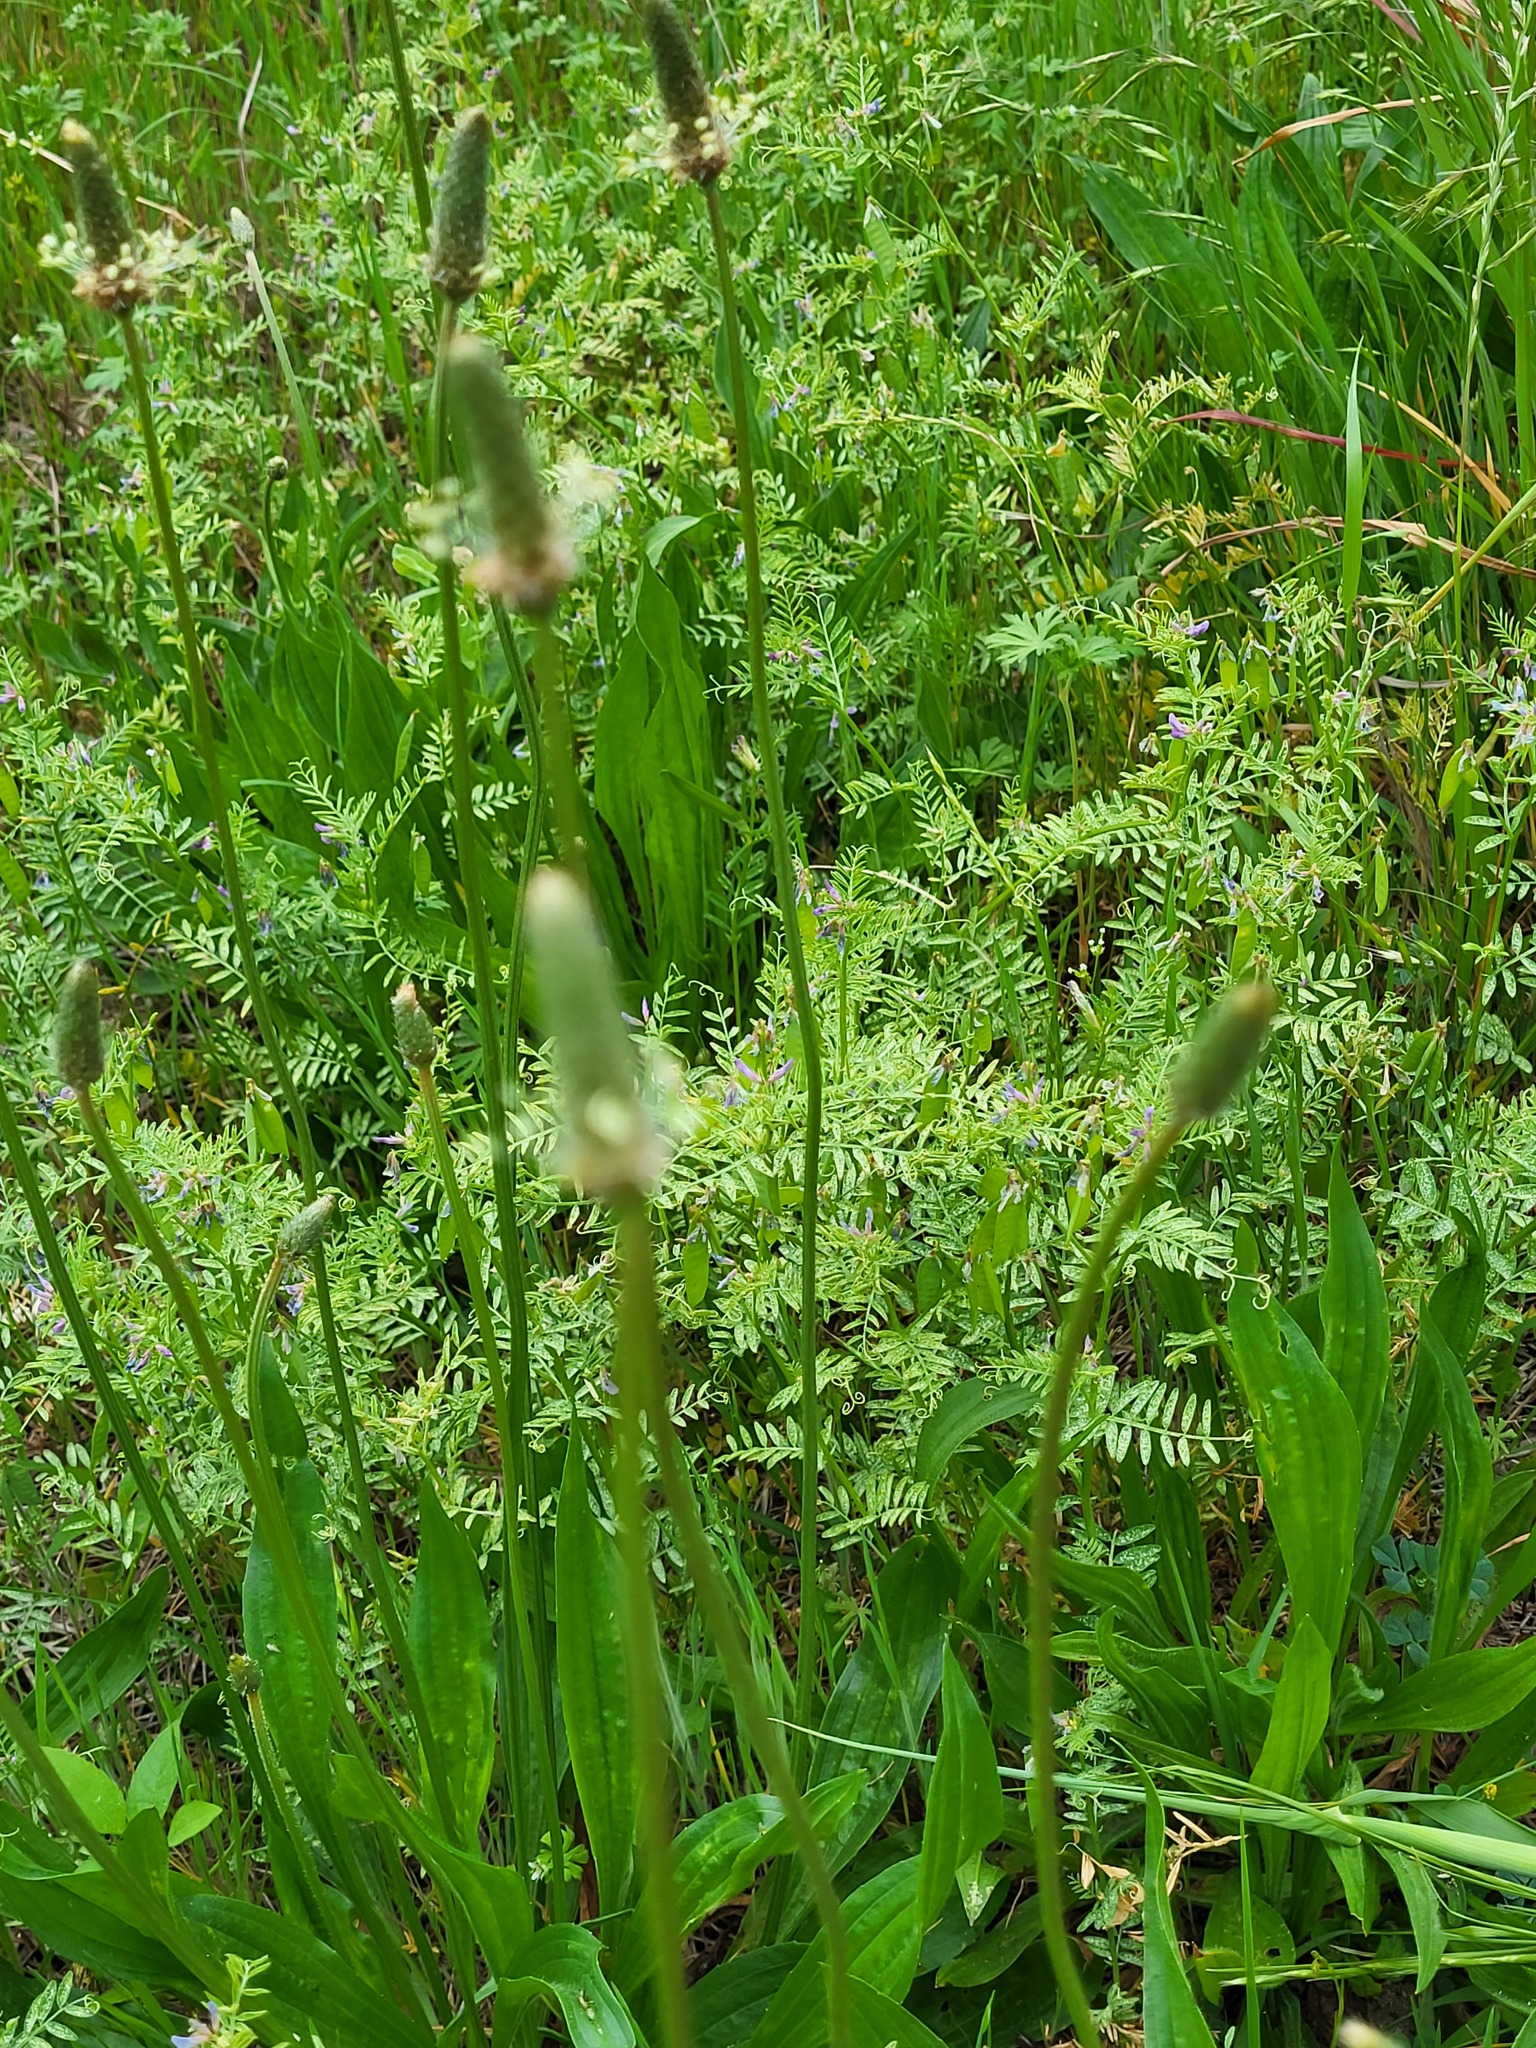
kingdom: Plantae
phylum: Tracheophyta
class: Magnoliopsida
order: Lamiales
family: Plantaginaceae
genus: Plantago
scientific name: Plantago lanceolata
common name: Ribwort plantain
